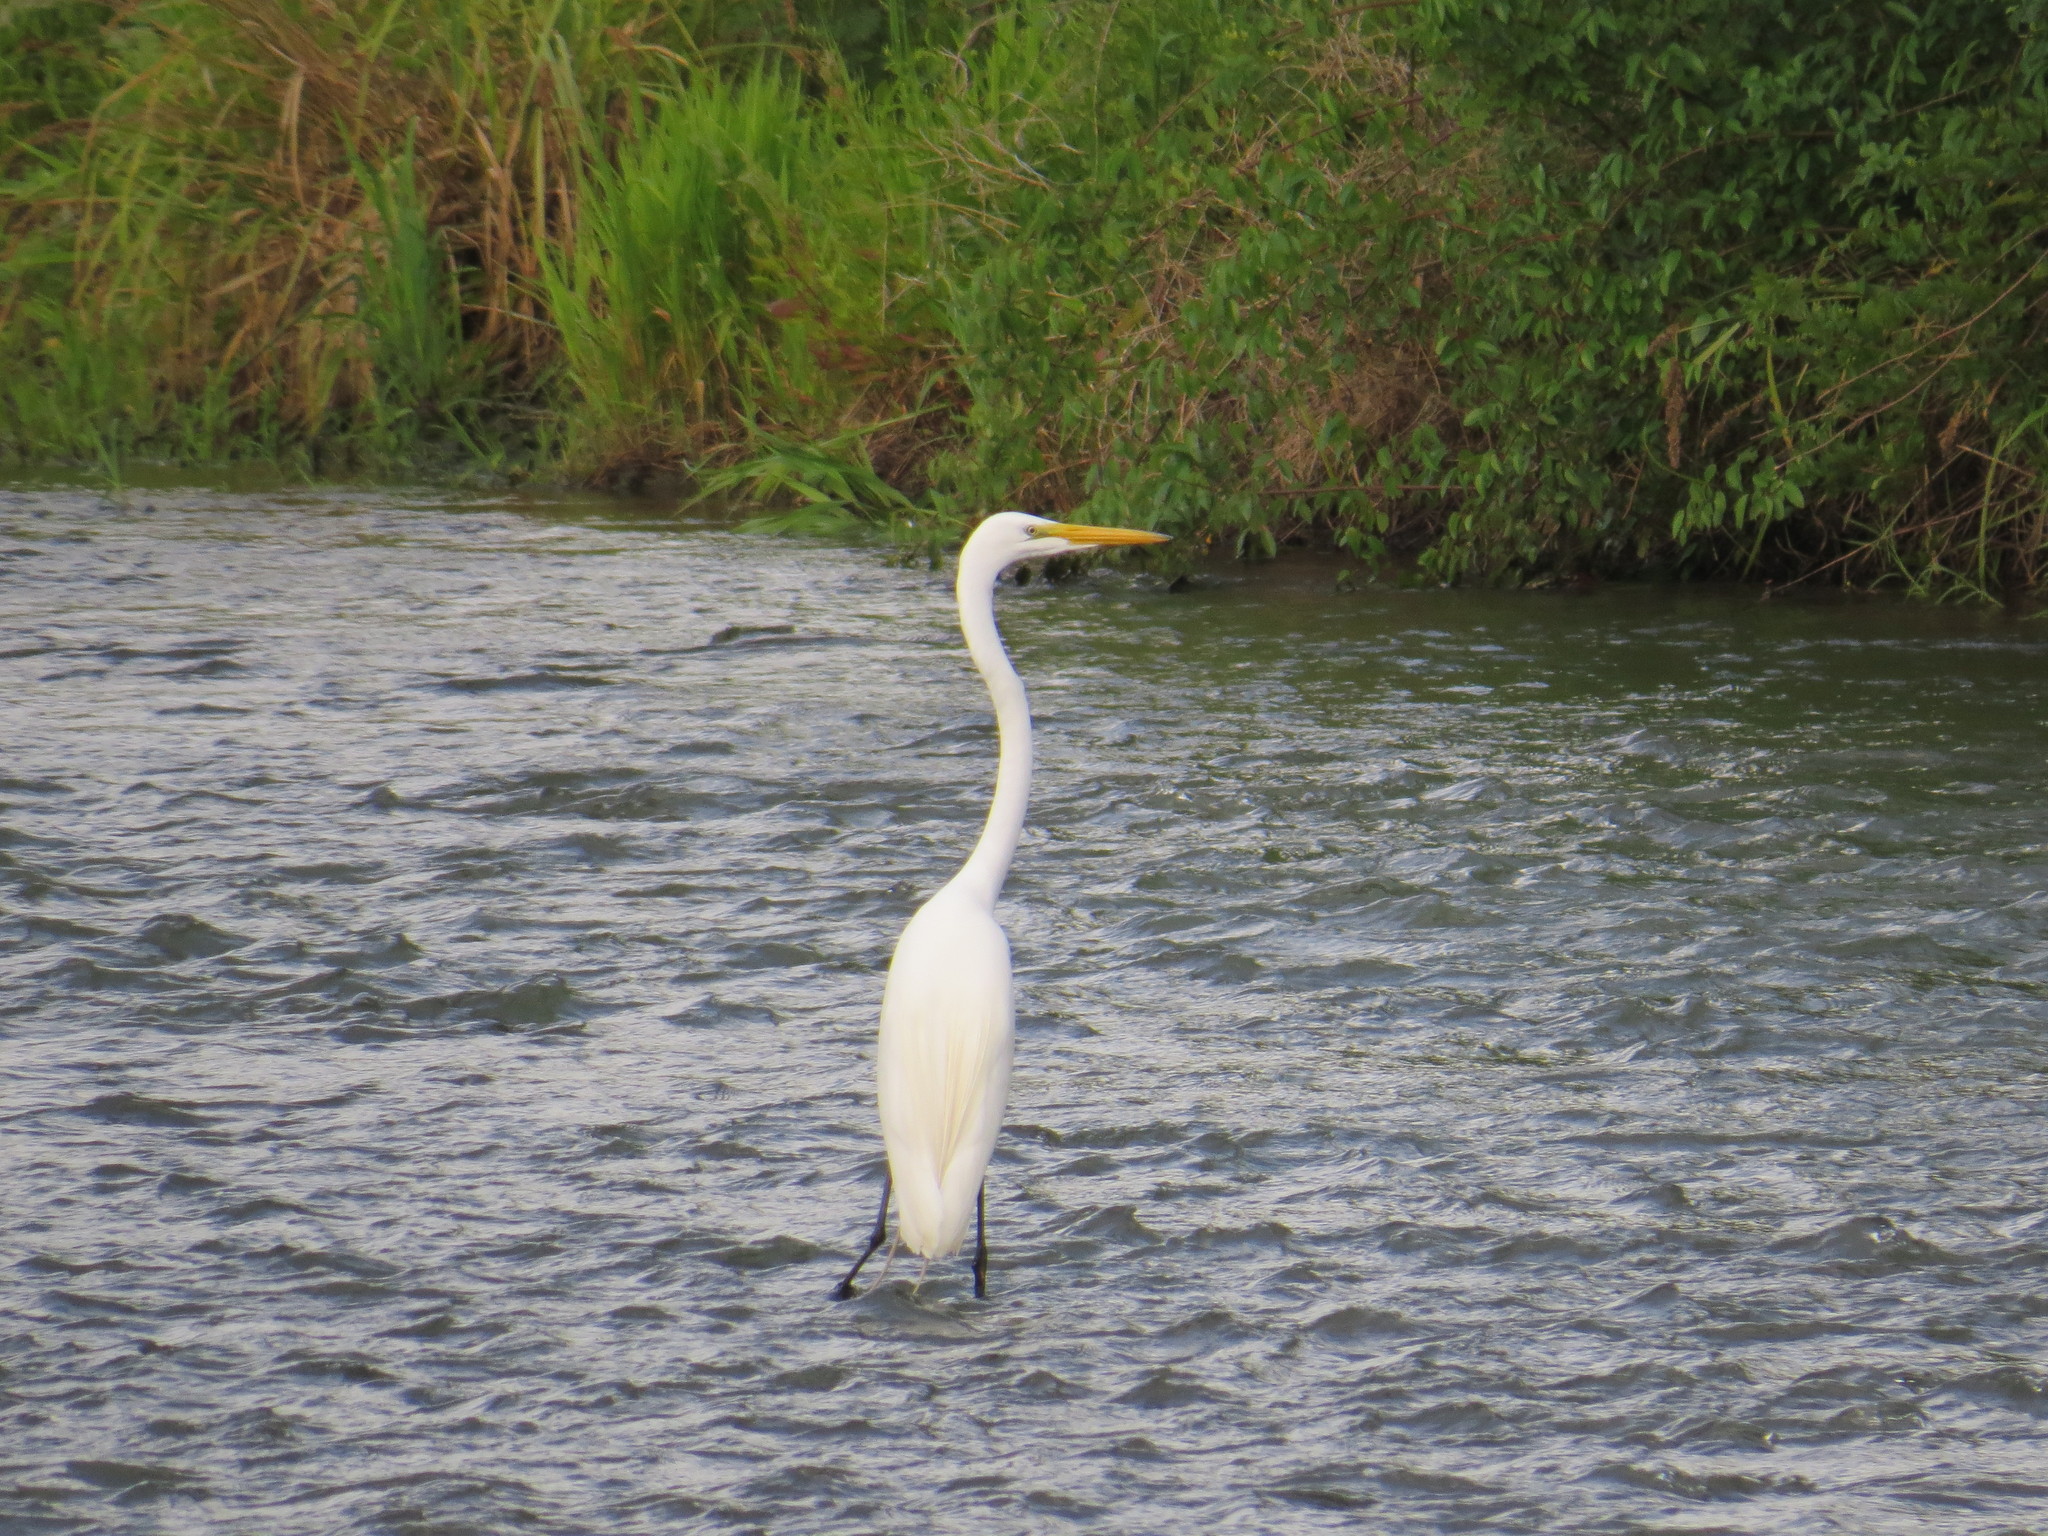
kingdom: Animalia
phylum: Chordata
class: Aves
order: Pelecaniformes
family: Ardeidae
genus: Ardea
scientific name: Ardea alba
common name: Great egret
